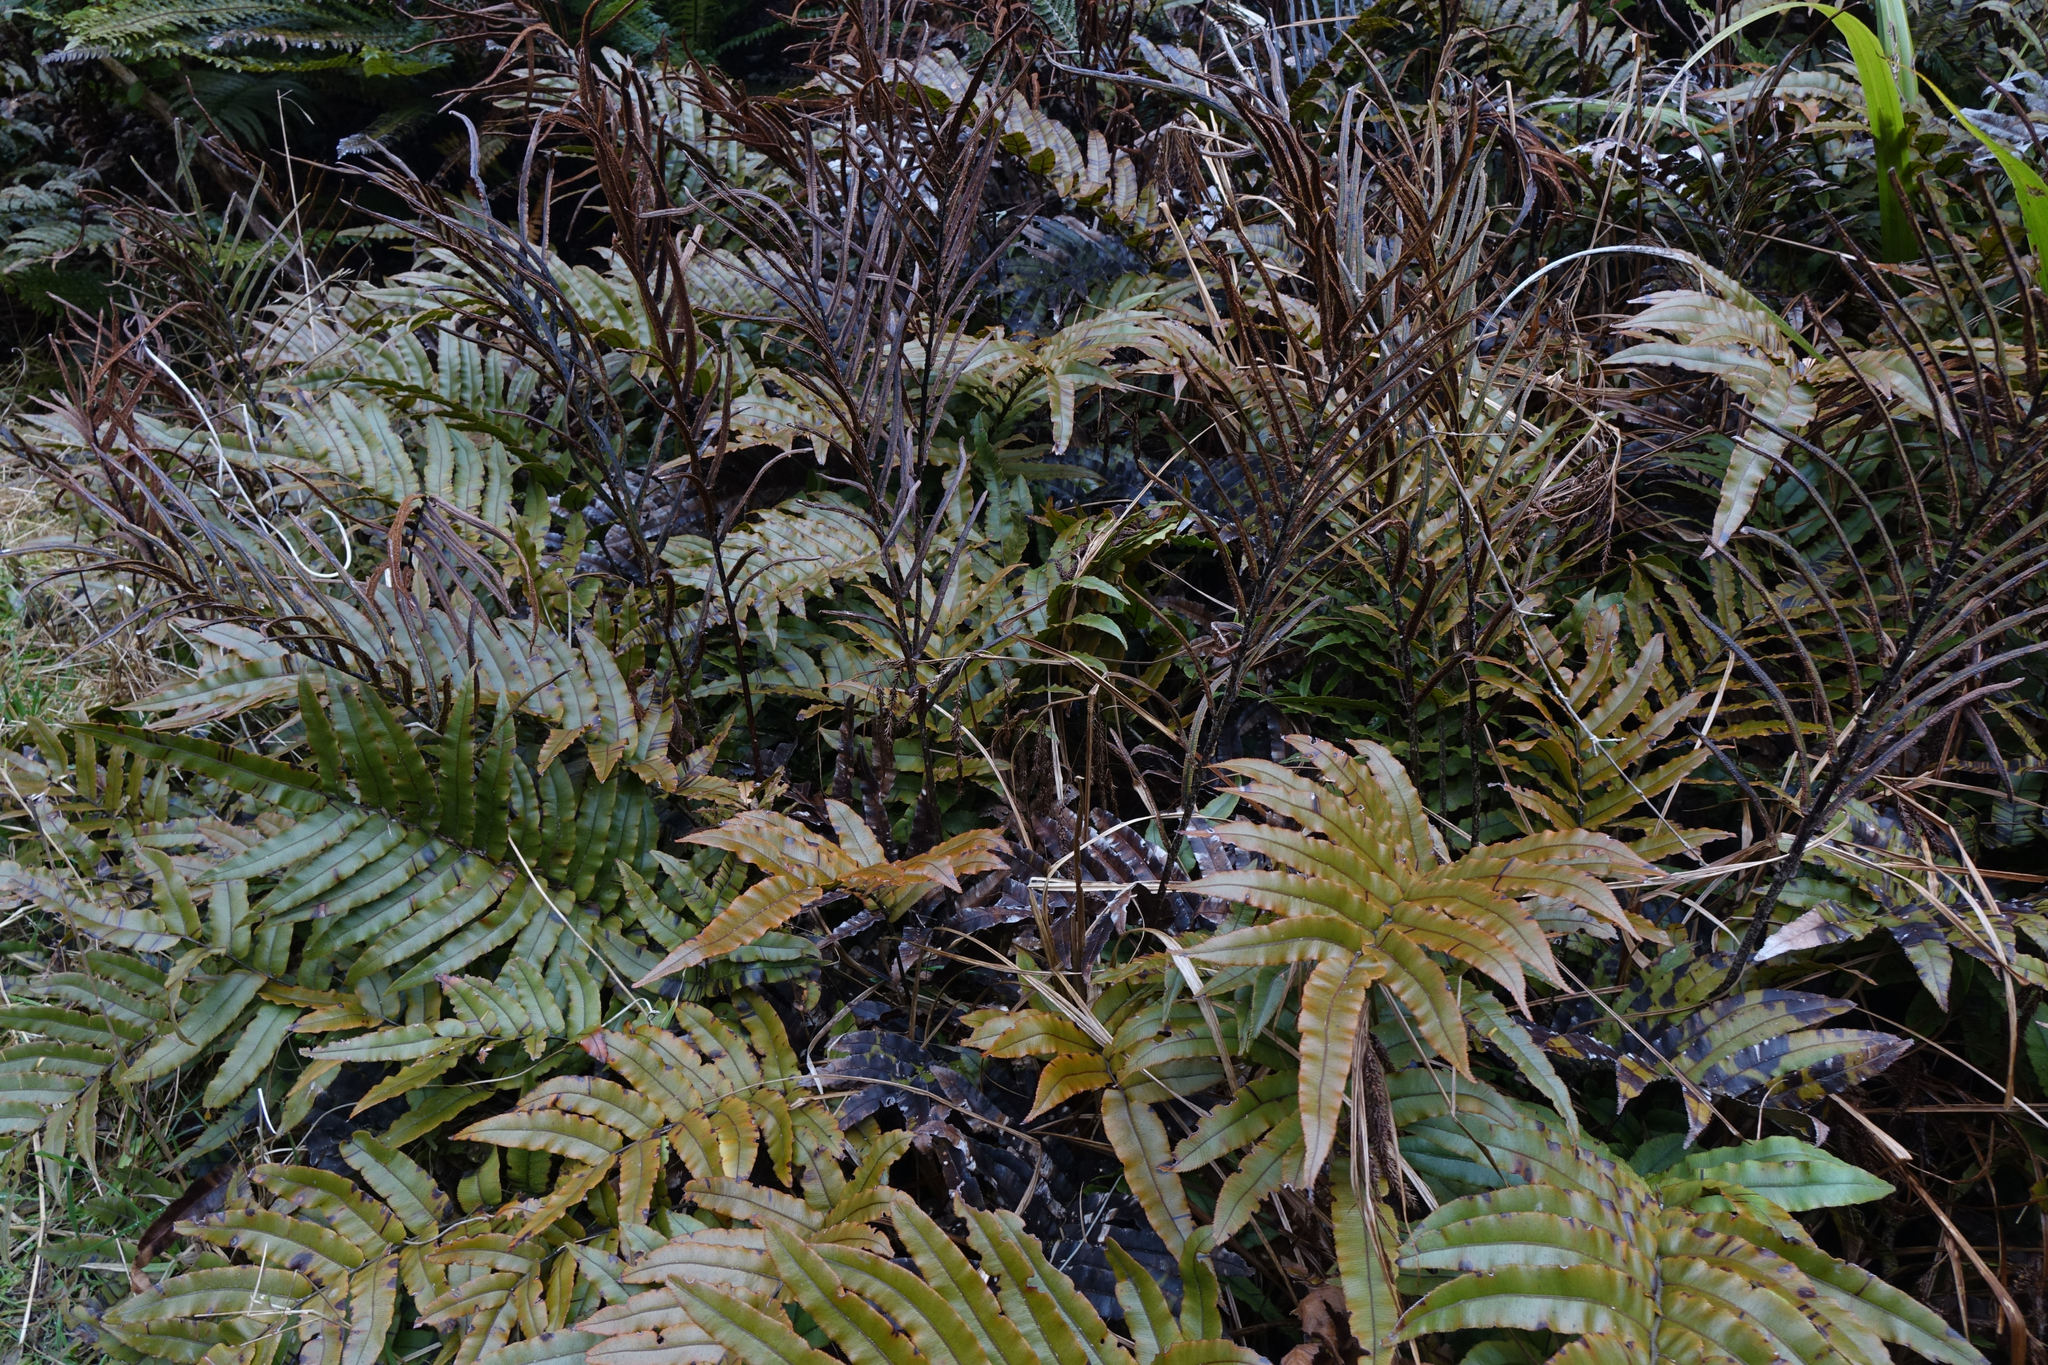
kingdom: Plantae
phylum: Tracheophyta
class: Polypodiopsida
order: Polypodiales
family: Blechnaceae
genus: Parablechnum
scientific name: Parablechnum montanum
